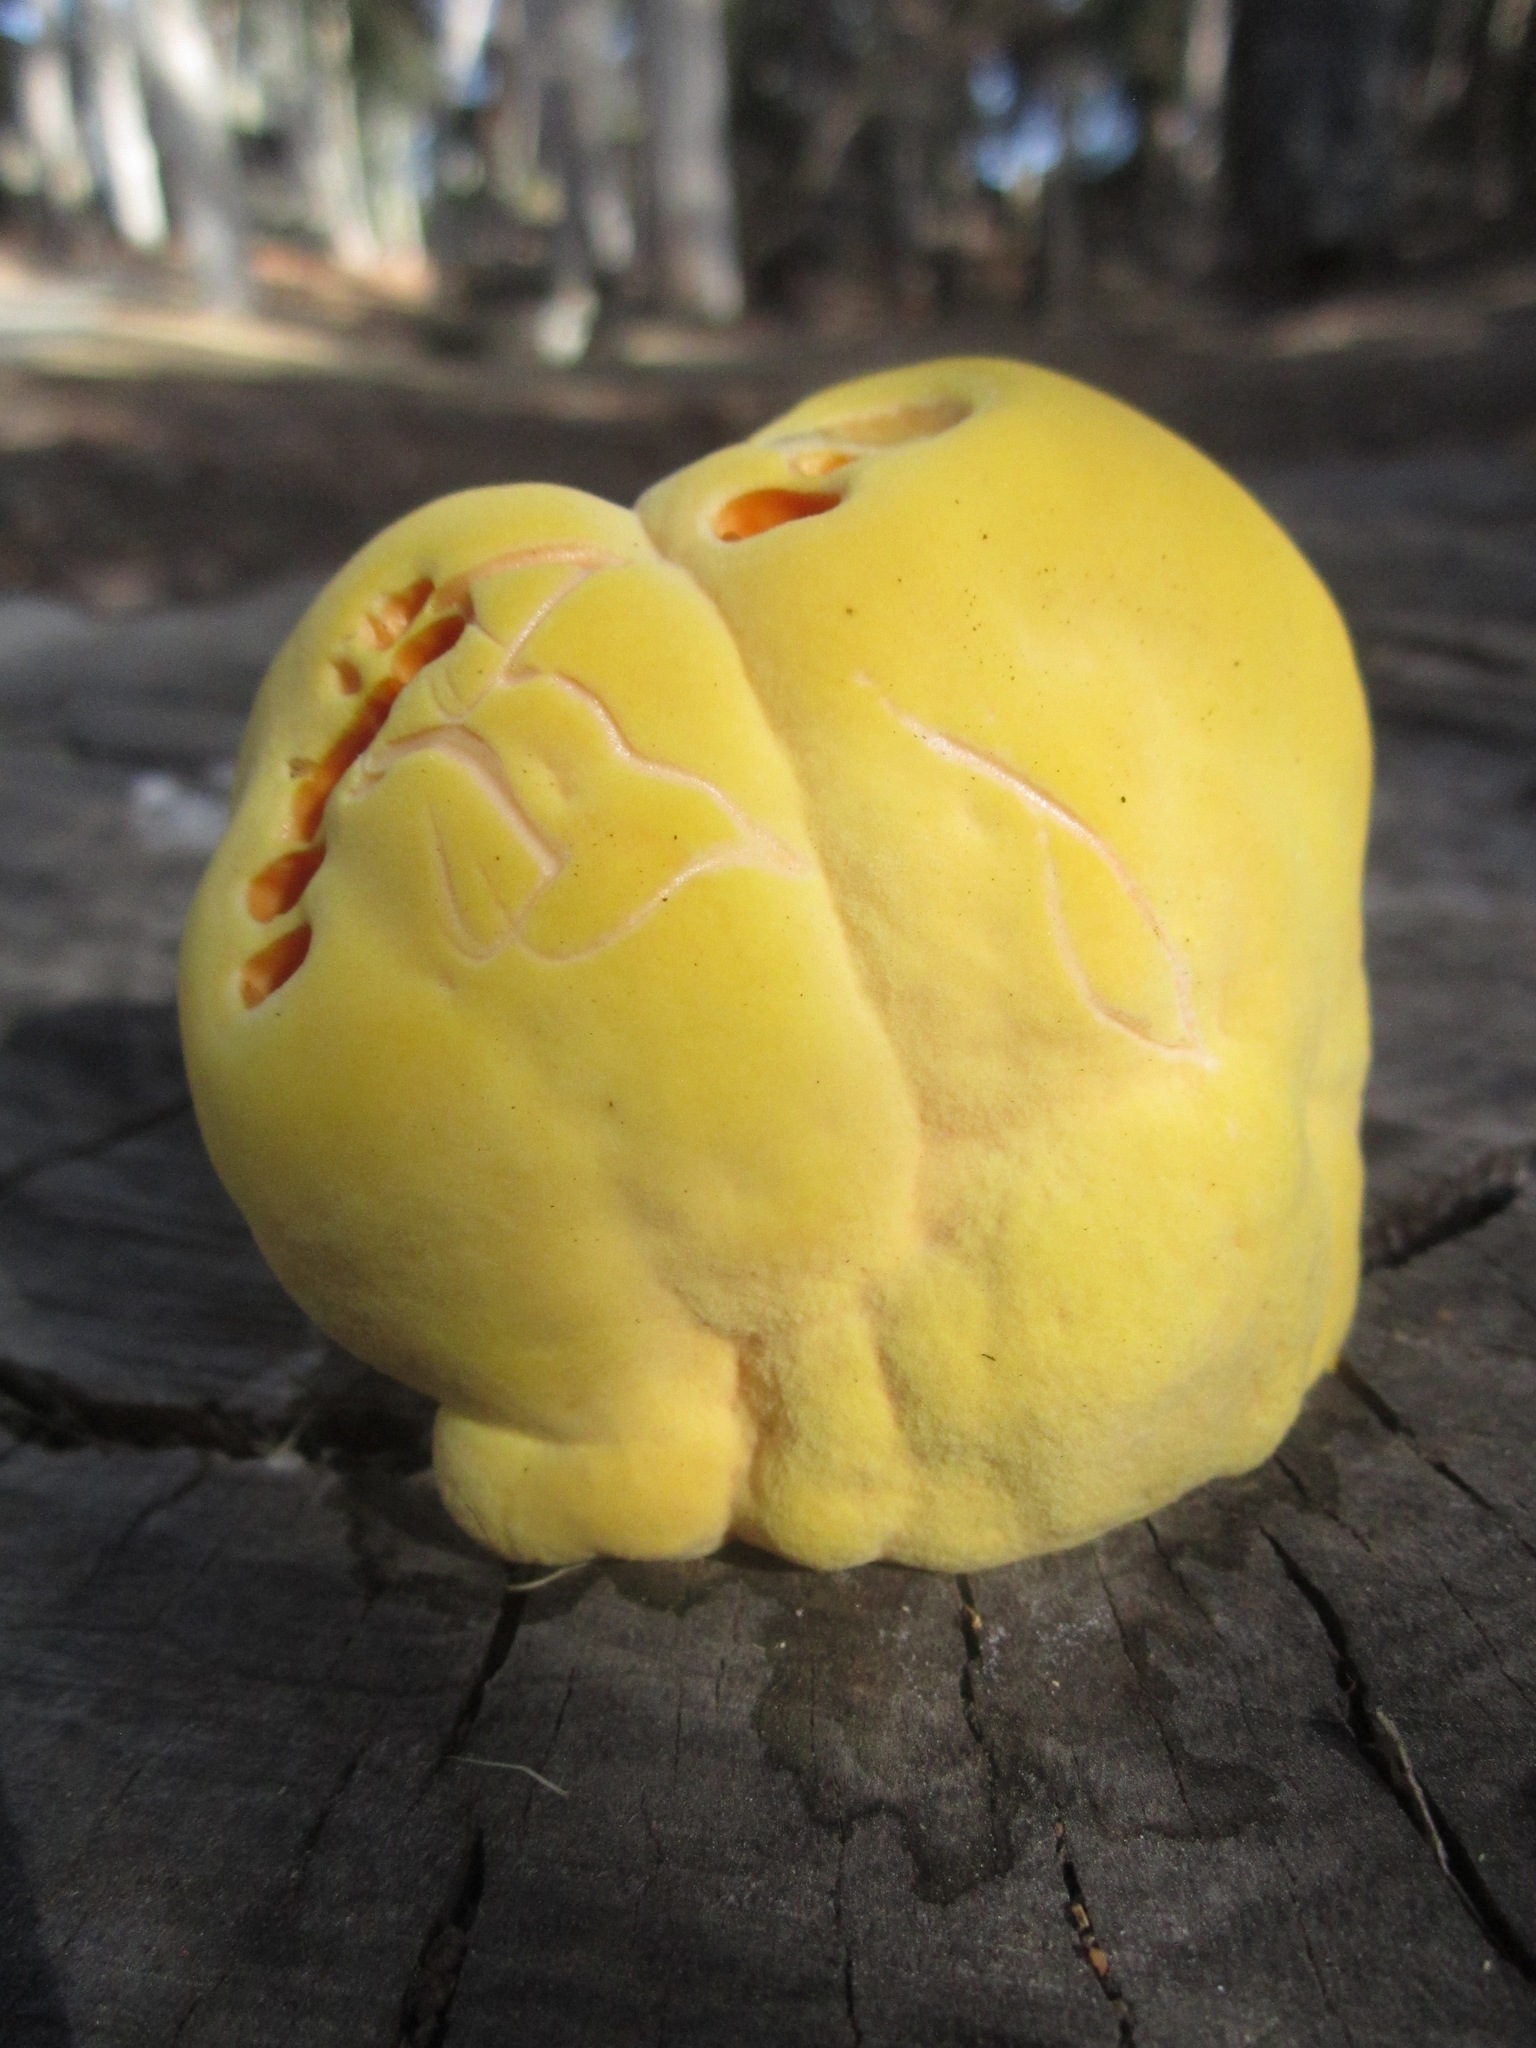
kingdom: Fungi
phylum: Basidiomycota
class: Agaricomycetes
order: Polyporales
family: Laetiporaceae
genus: Laetiporus
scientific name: Laetiporus gilbertsonii
